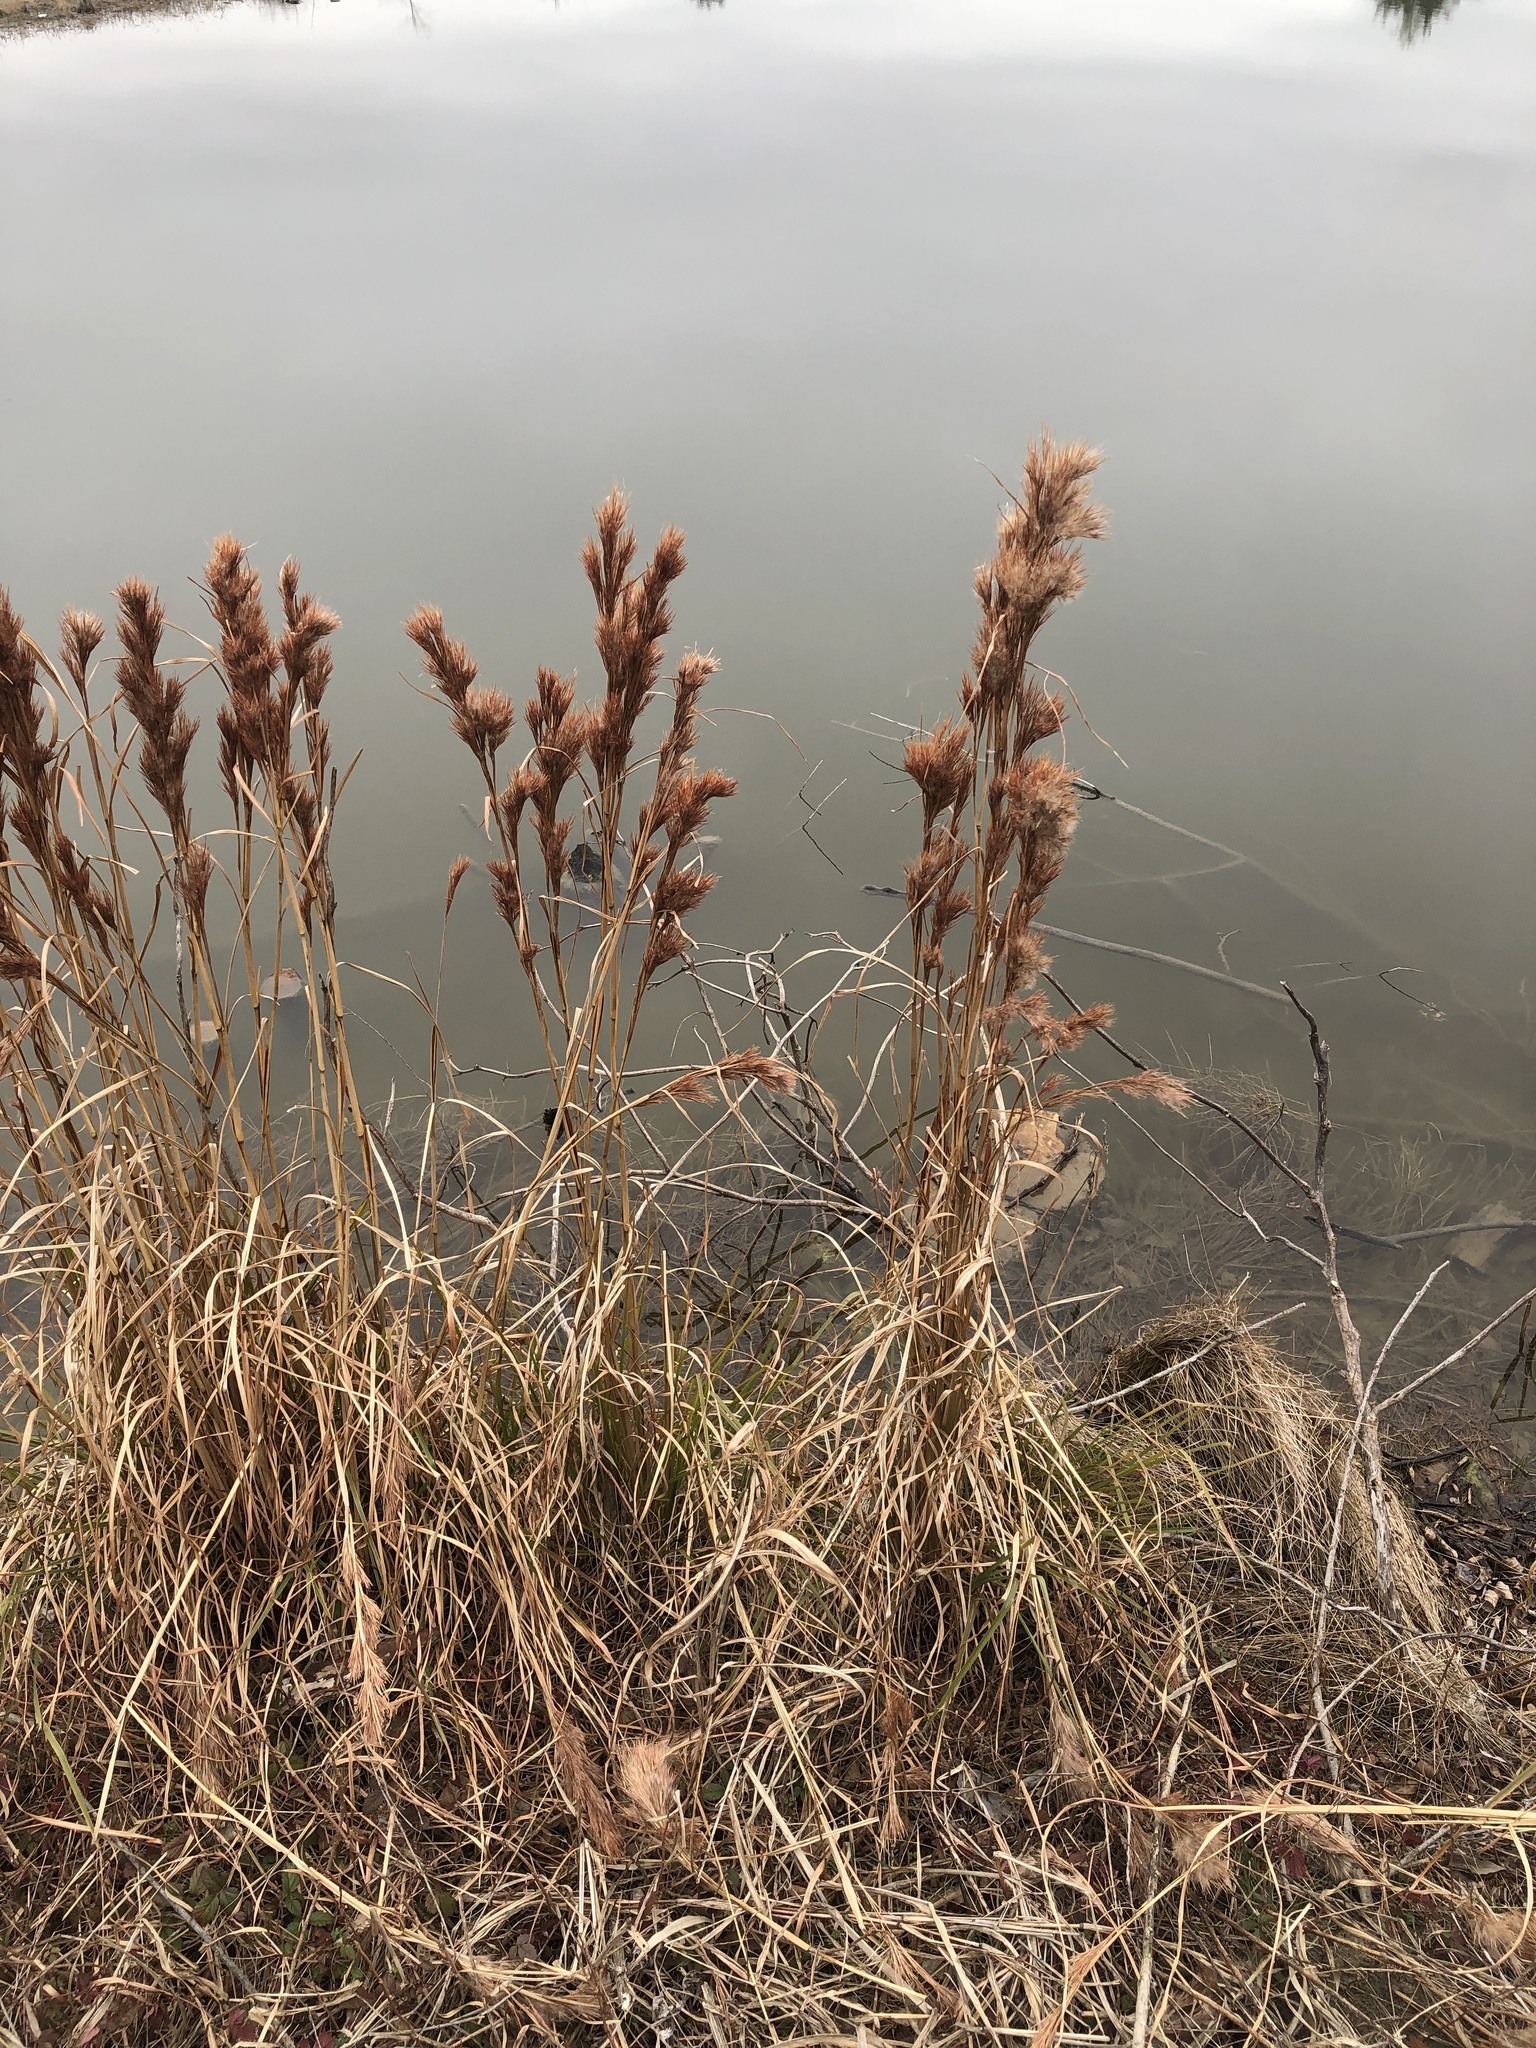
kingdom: Plantae
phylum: Tracheophyta
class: Liliopsida
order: Poales
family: Poaceae
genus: Andropogon
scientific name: Andropogon tenuispatheus
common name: Bushy bluestem
